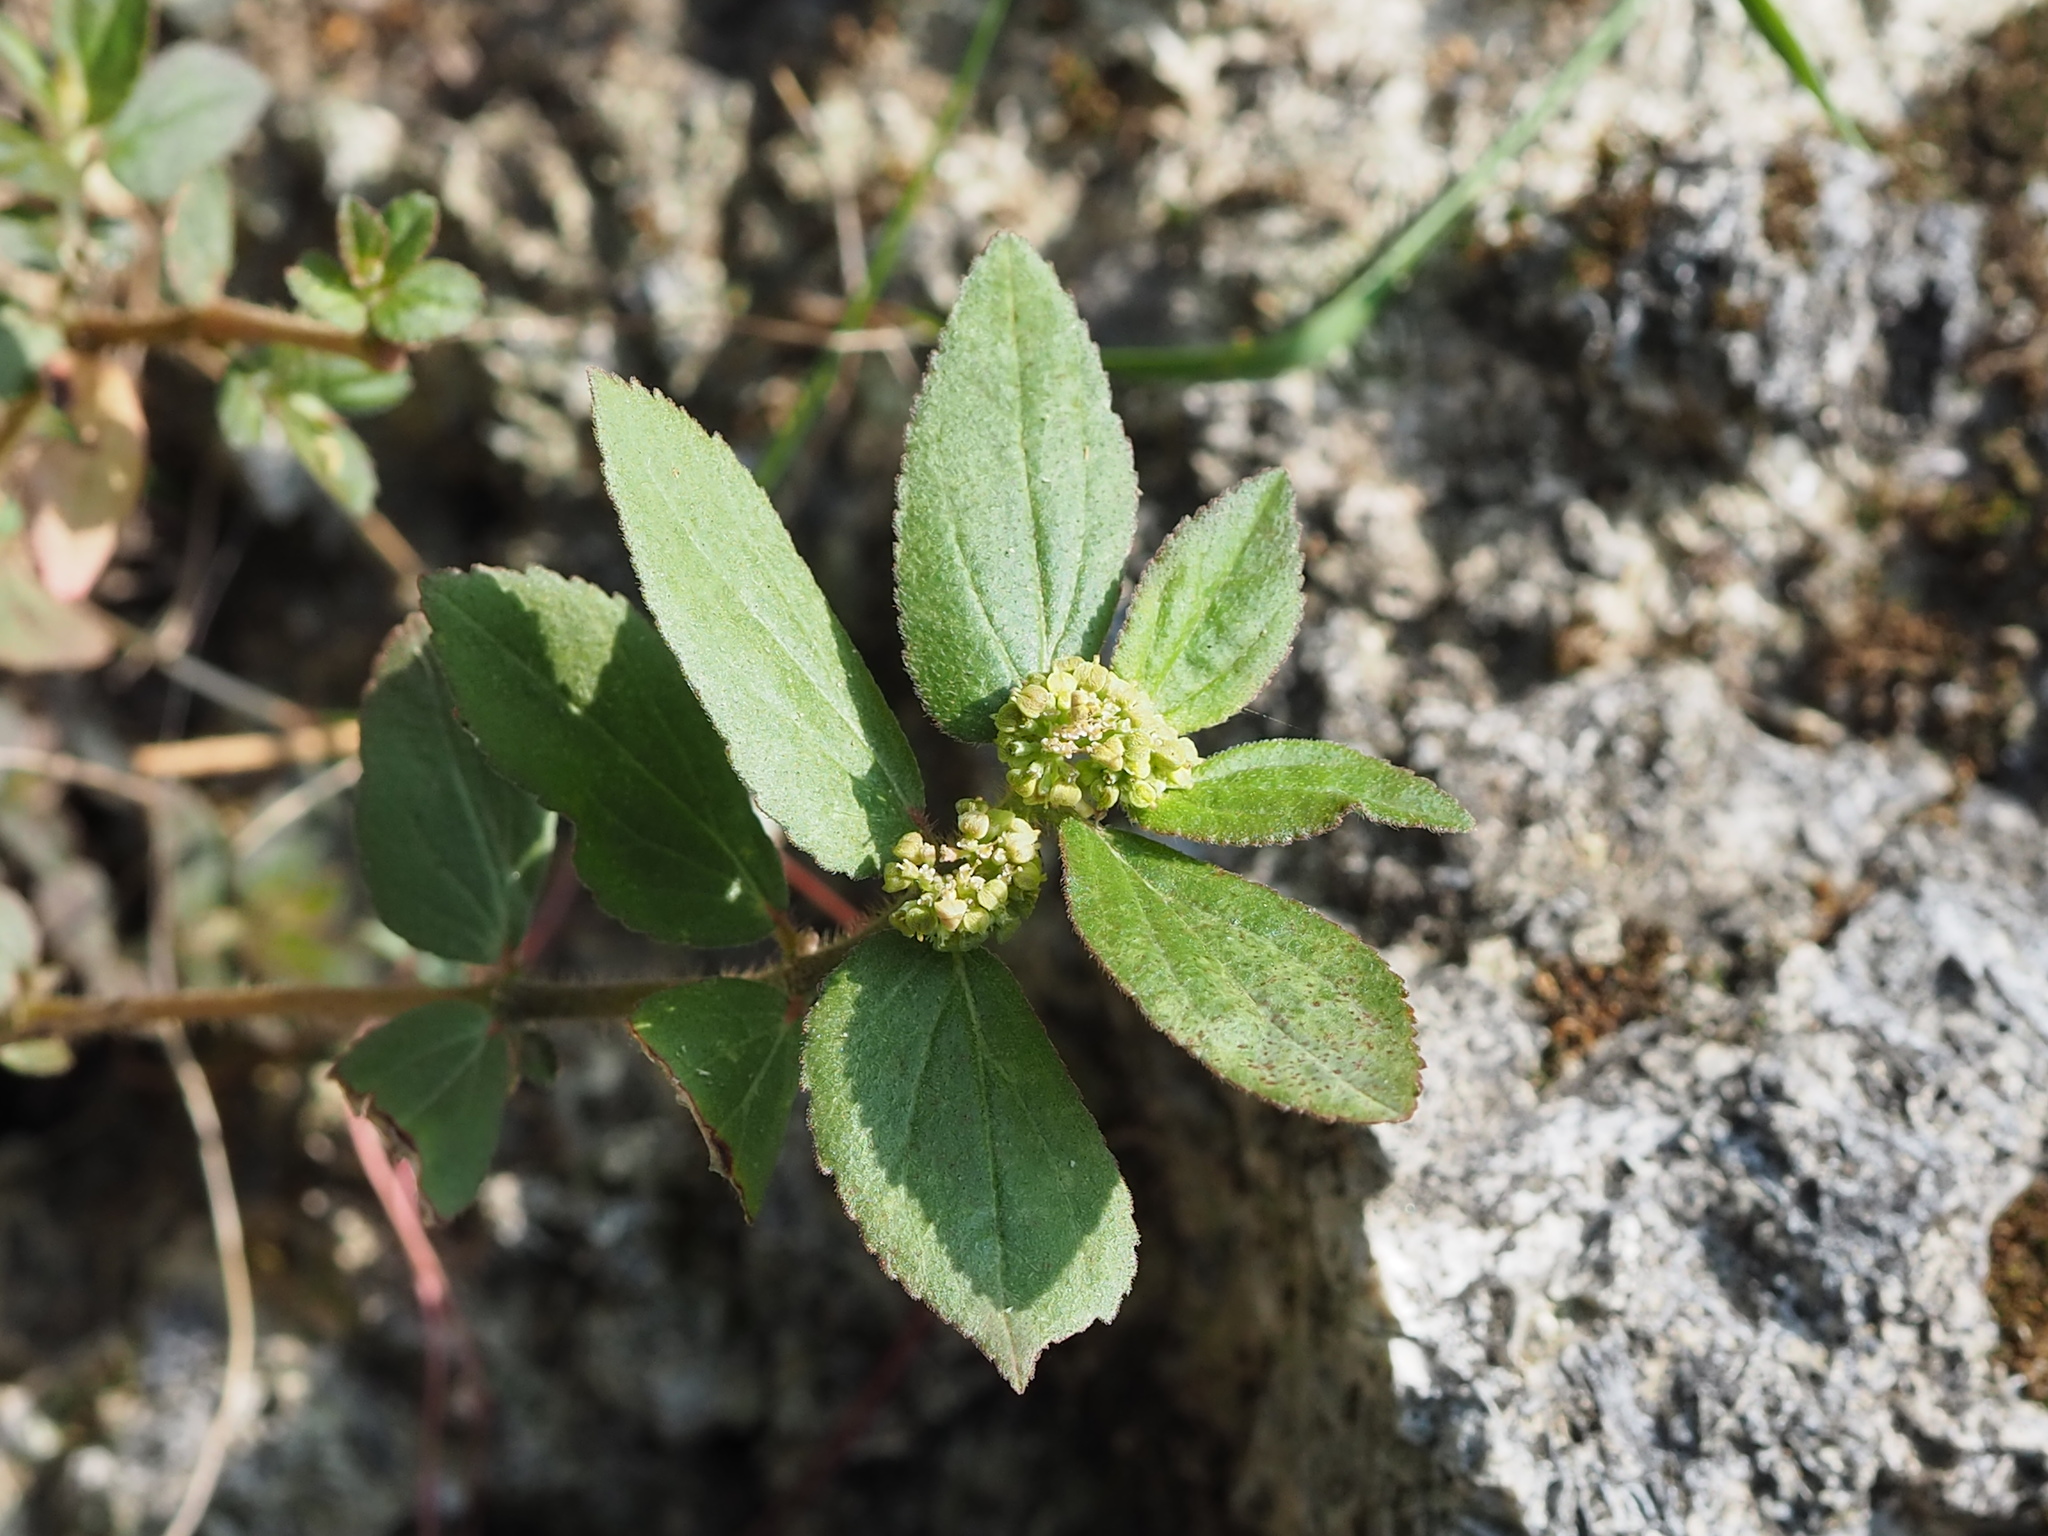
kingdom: Plantae
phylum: Tracheophyta
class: Magnoliopsida
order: Malpighiales
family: Euphorbiaceae
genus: Euphorbia
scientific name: Euphorbia hirta
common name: Pillpod sandmat
